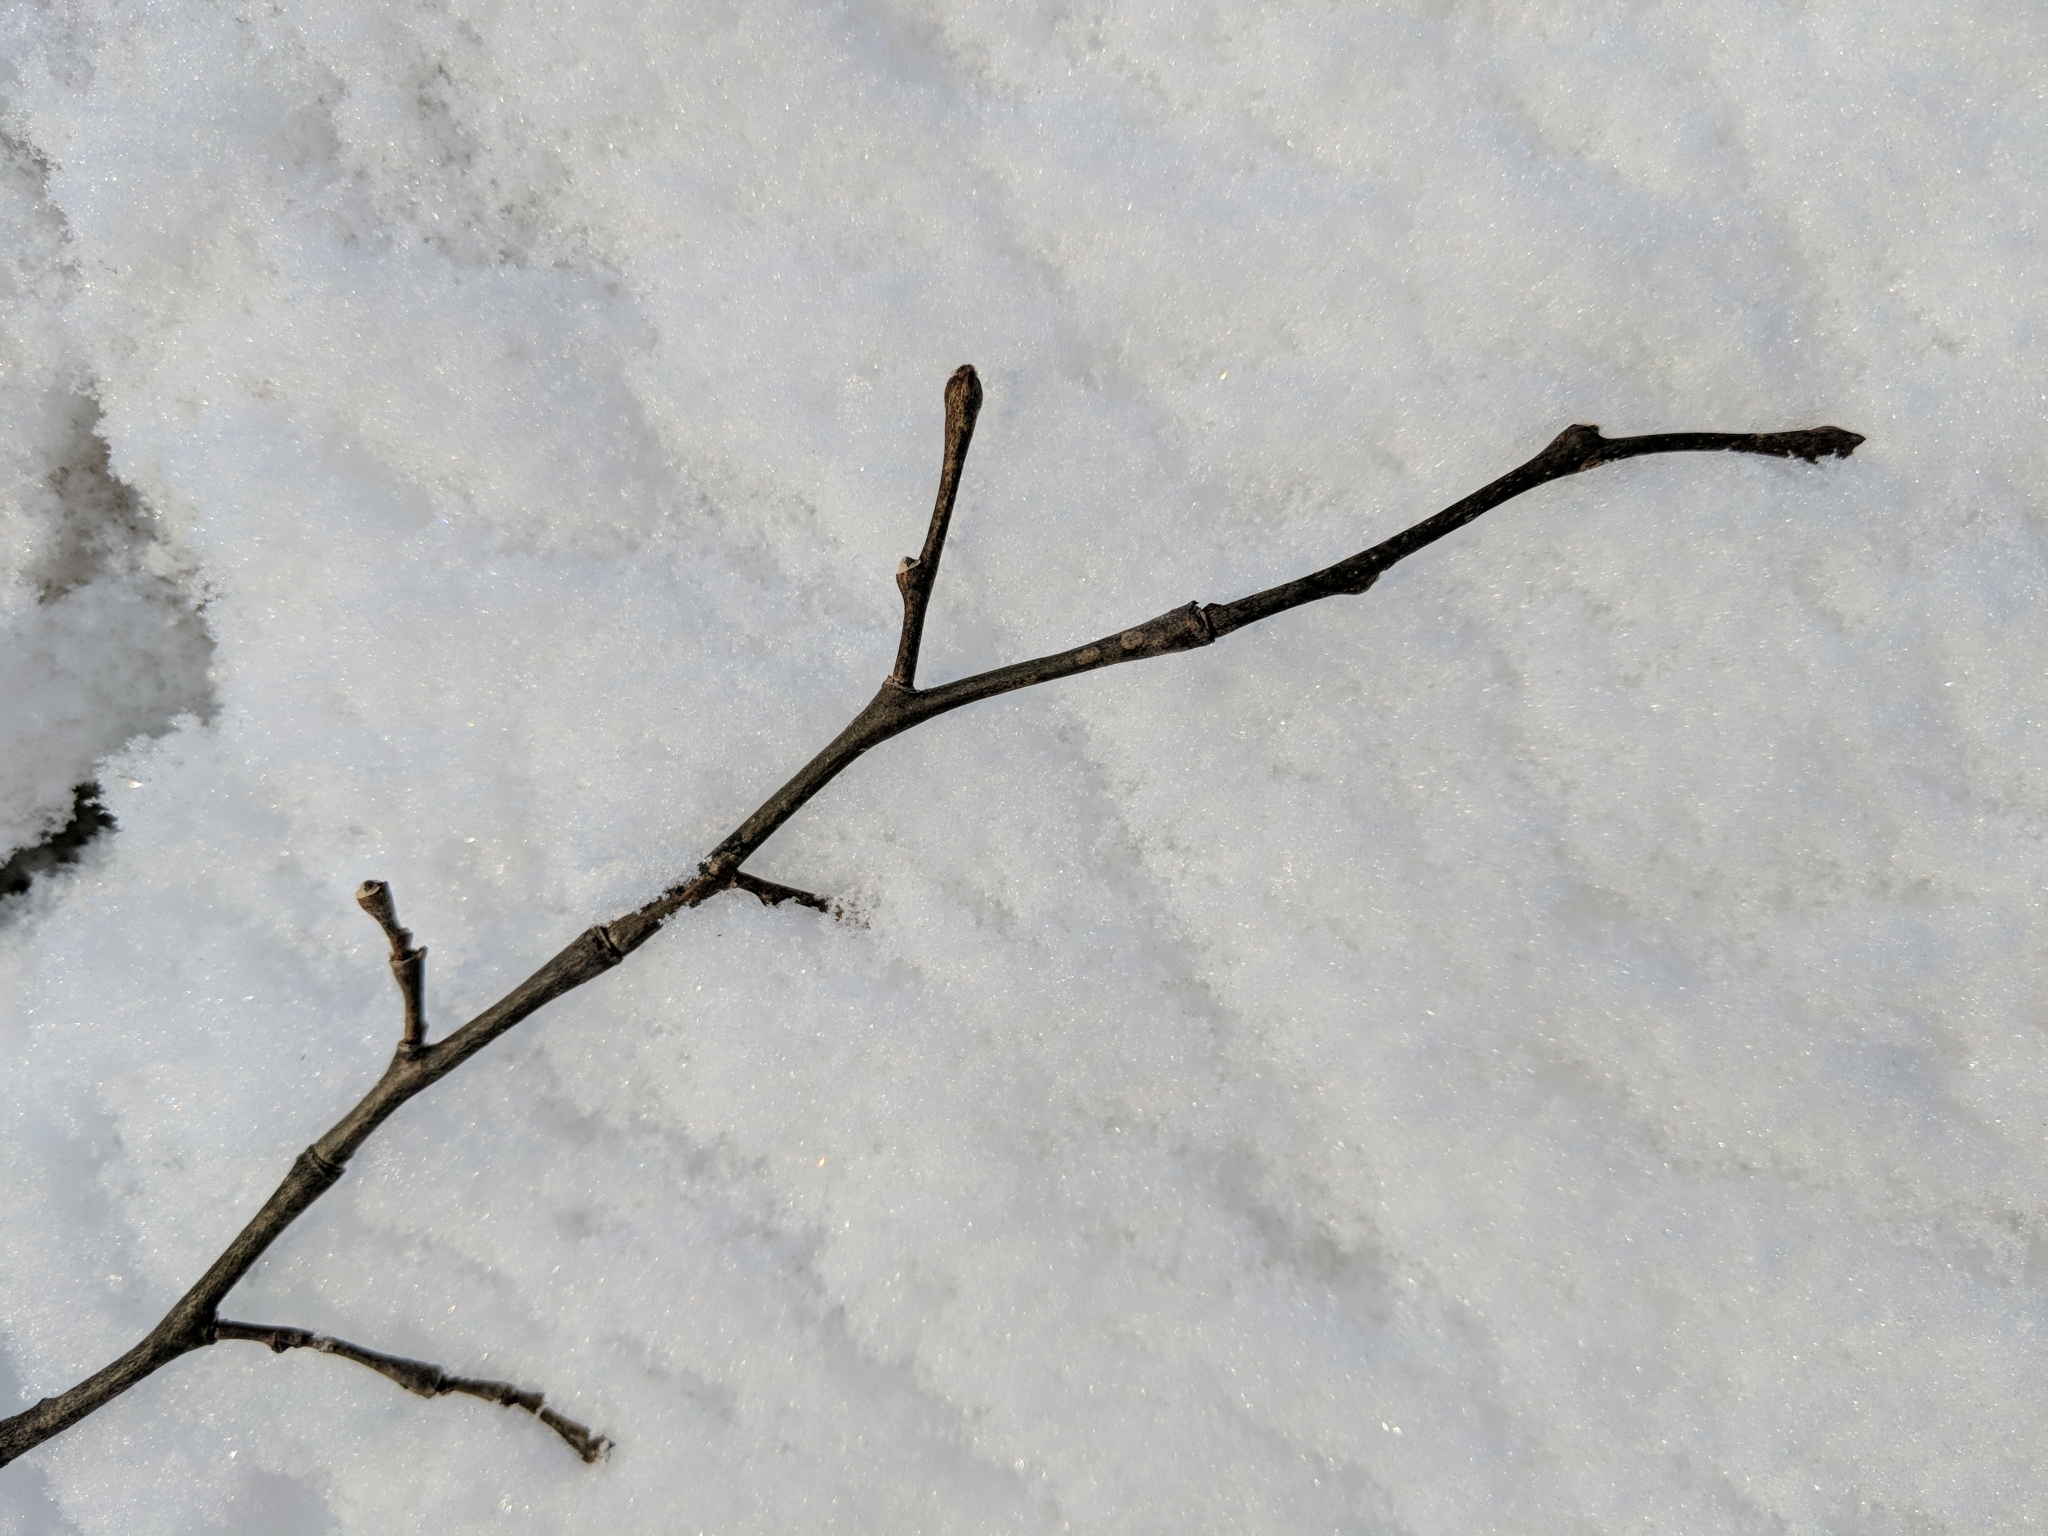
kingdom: Plantae
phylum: Tracheophyta
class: Magnoliopsida
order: Malvales
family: Thymelaeaceae
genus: Dirca
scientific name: Dirca palustris
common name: Leatherwood
